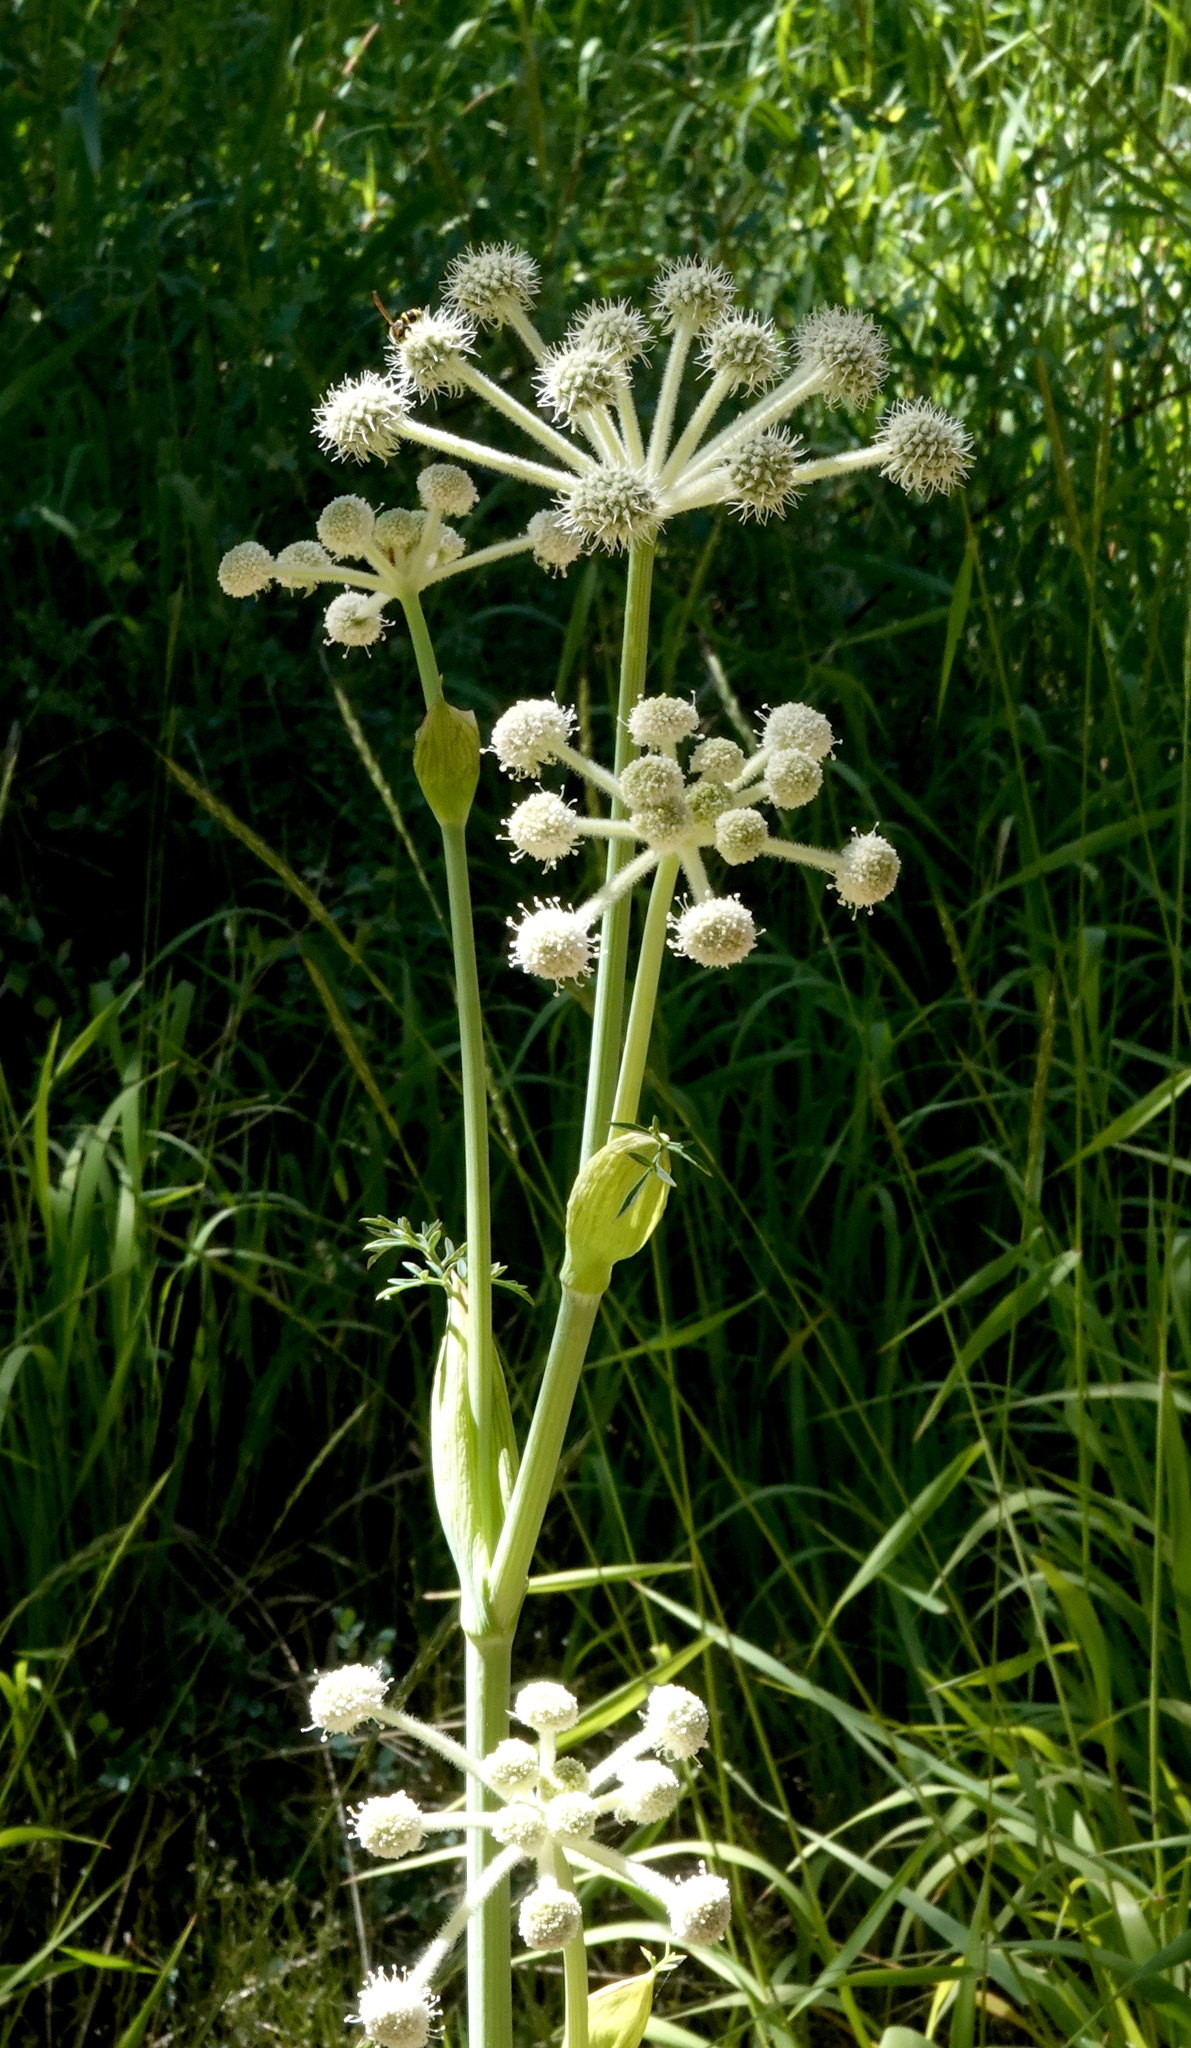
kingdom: Plantae
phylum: Tracheophyta
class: Magnoliopsida
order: Apiales
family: Apiaceae
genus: Angelica
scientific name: Angelica capitellata
